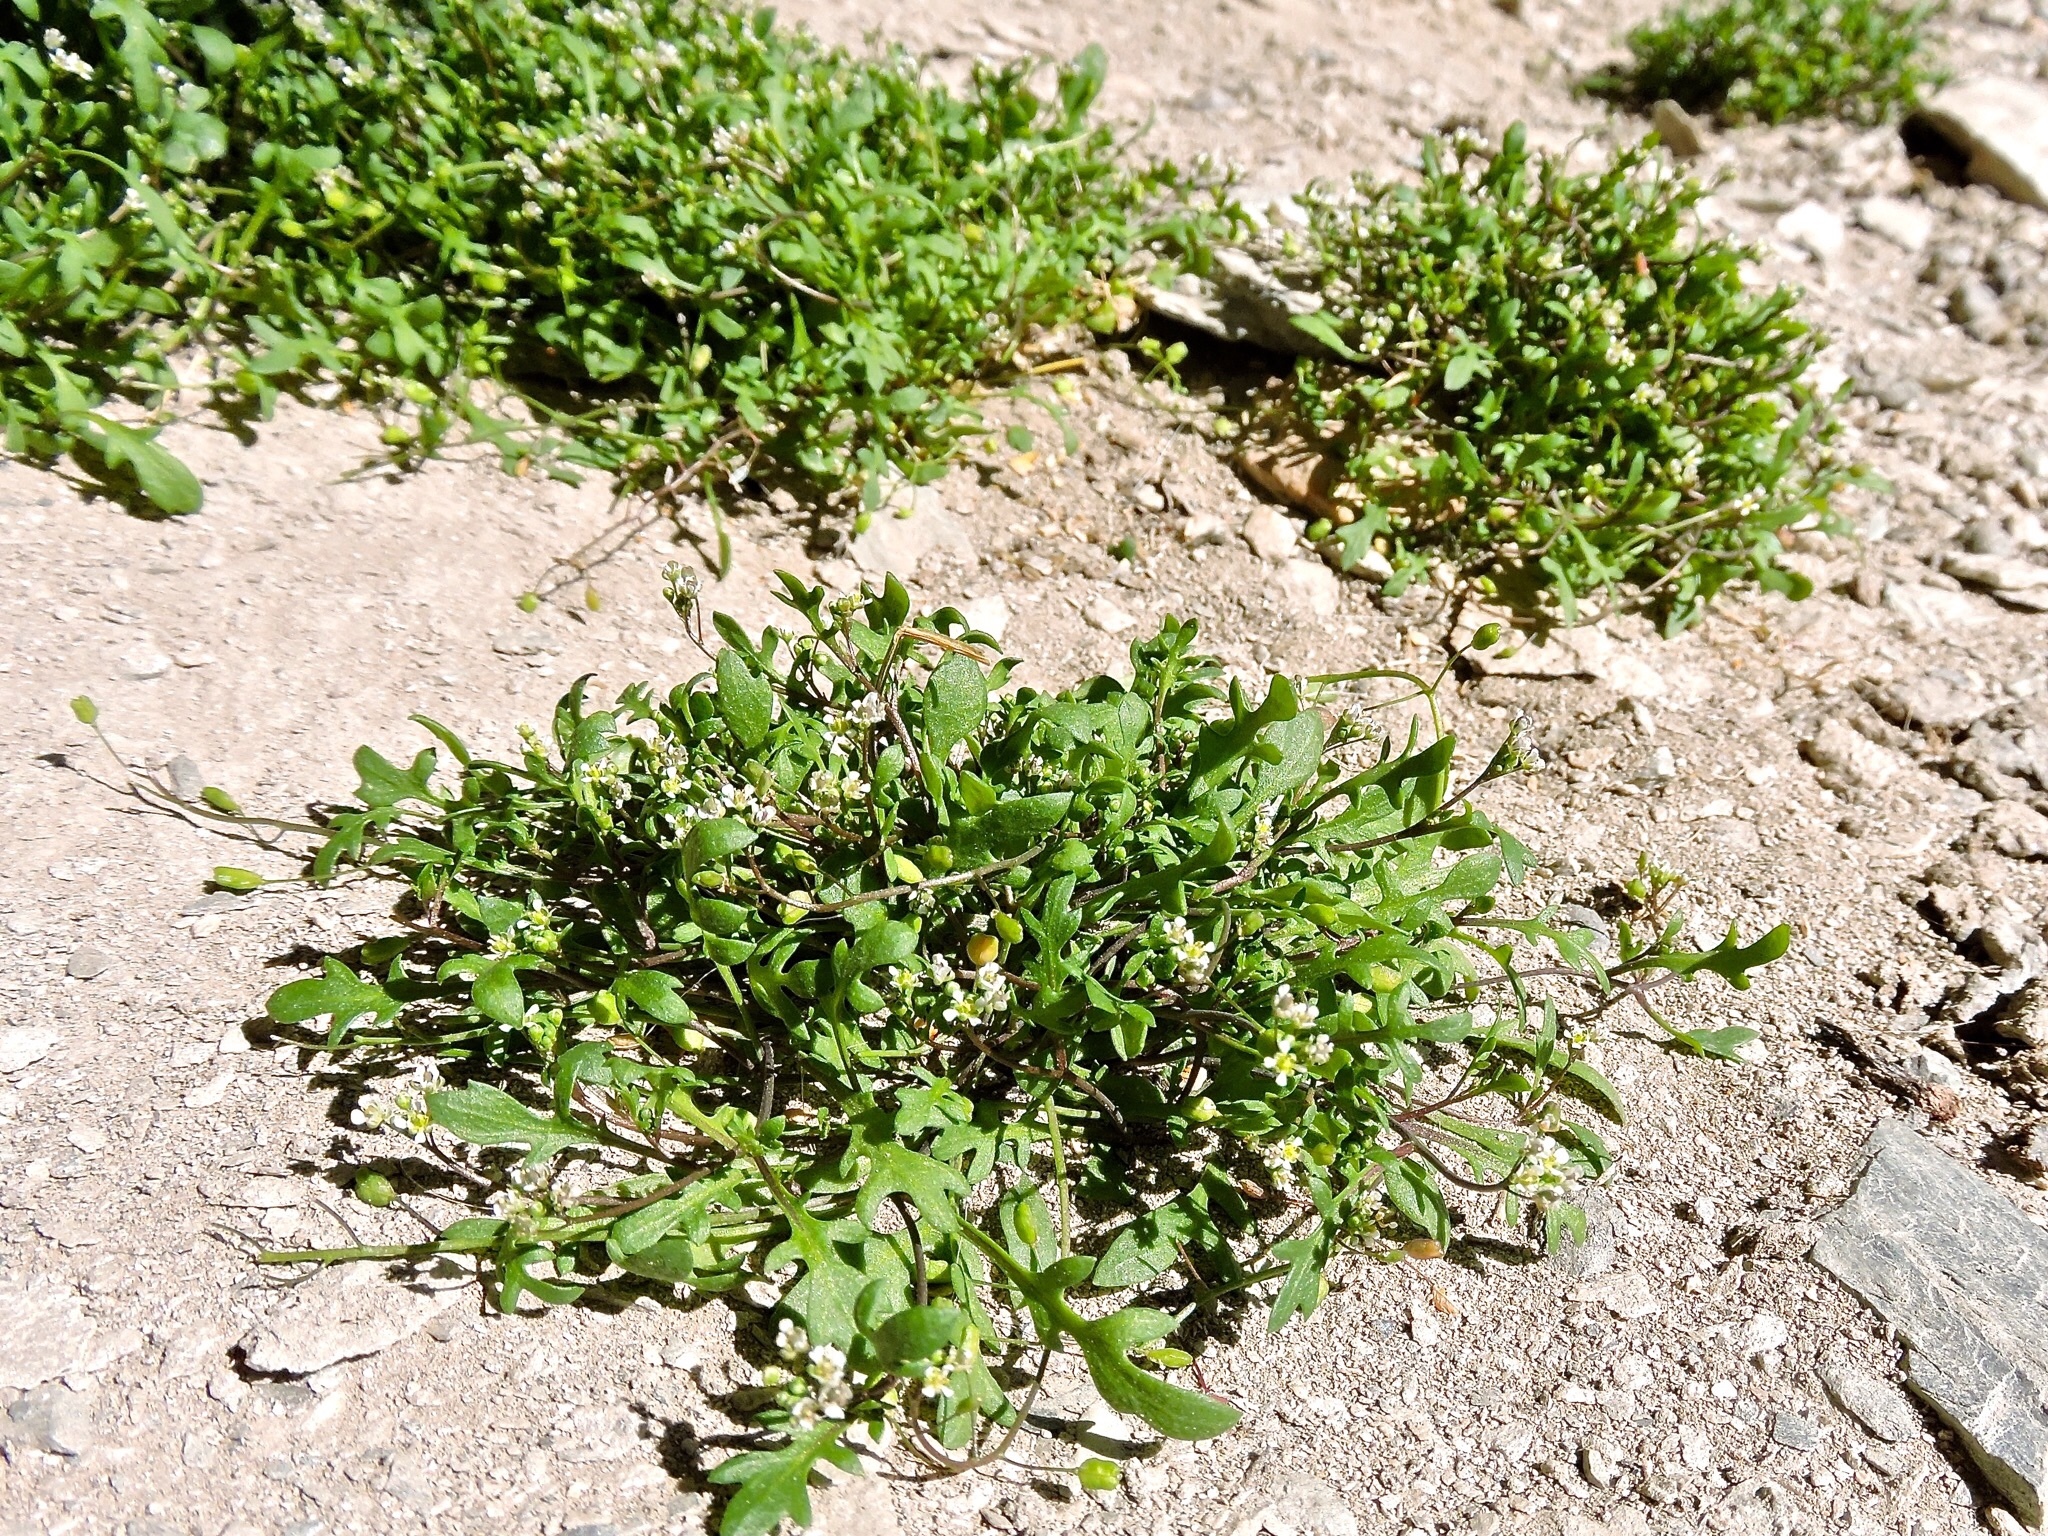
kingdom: Plantae
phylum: Tracheophyta
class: Magnoliopsida
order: Brassicales
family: Brassicaceae
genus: Hornungia
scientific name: Hornungia procumbens
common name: Oval purse
